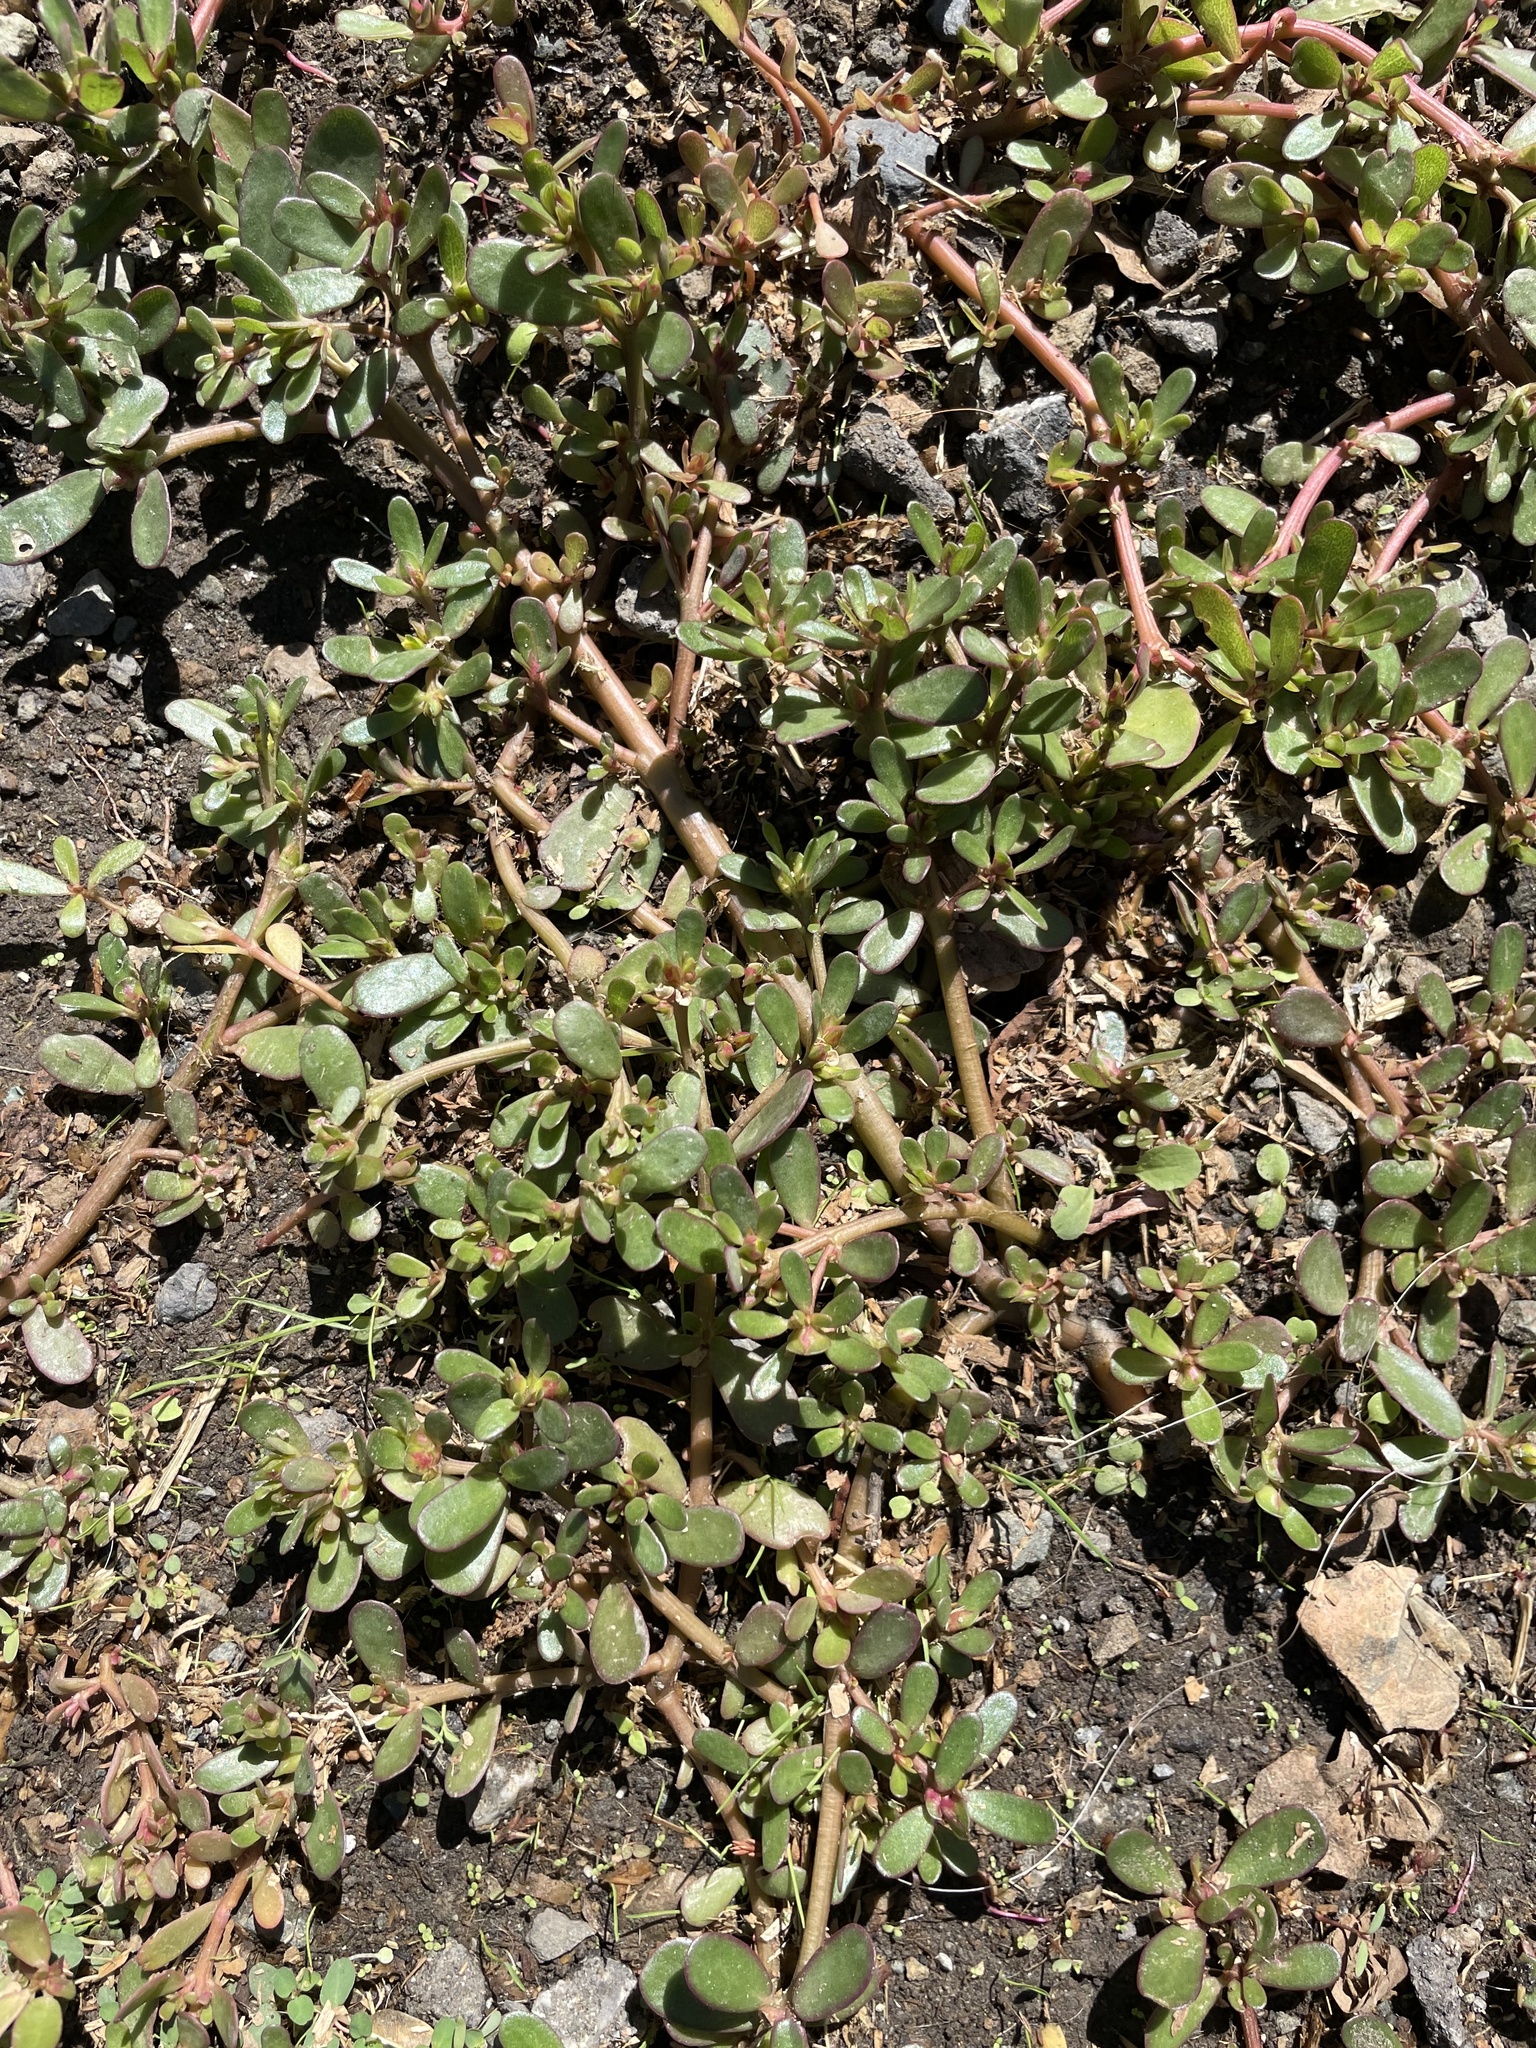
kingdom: Plantae
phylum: Tracheophyta
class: Magnoliopsida
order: Caryophyllales
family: Portulacaceae
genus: Portulaca
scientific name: Portulaca oleracea
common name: Common purslane
